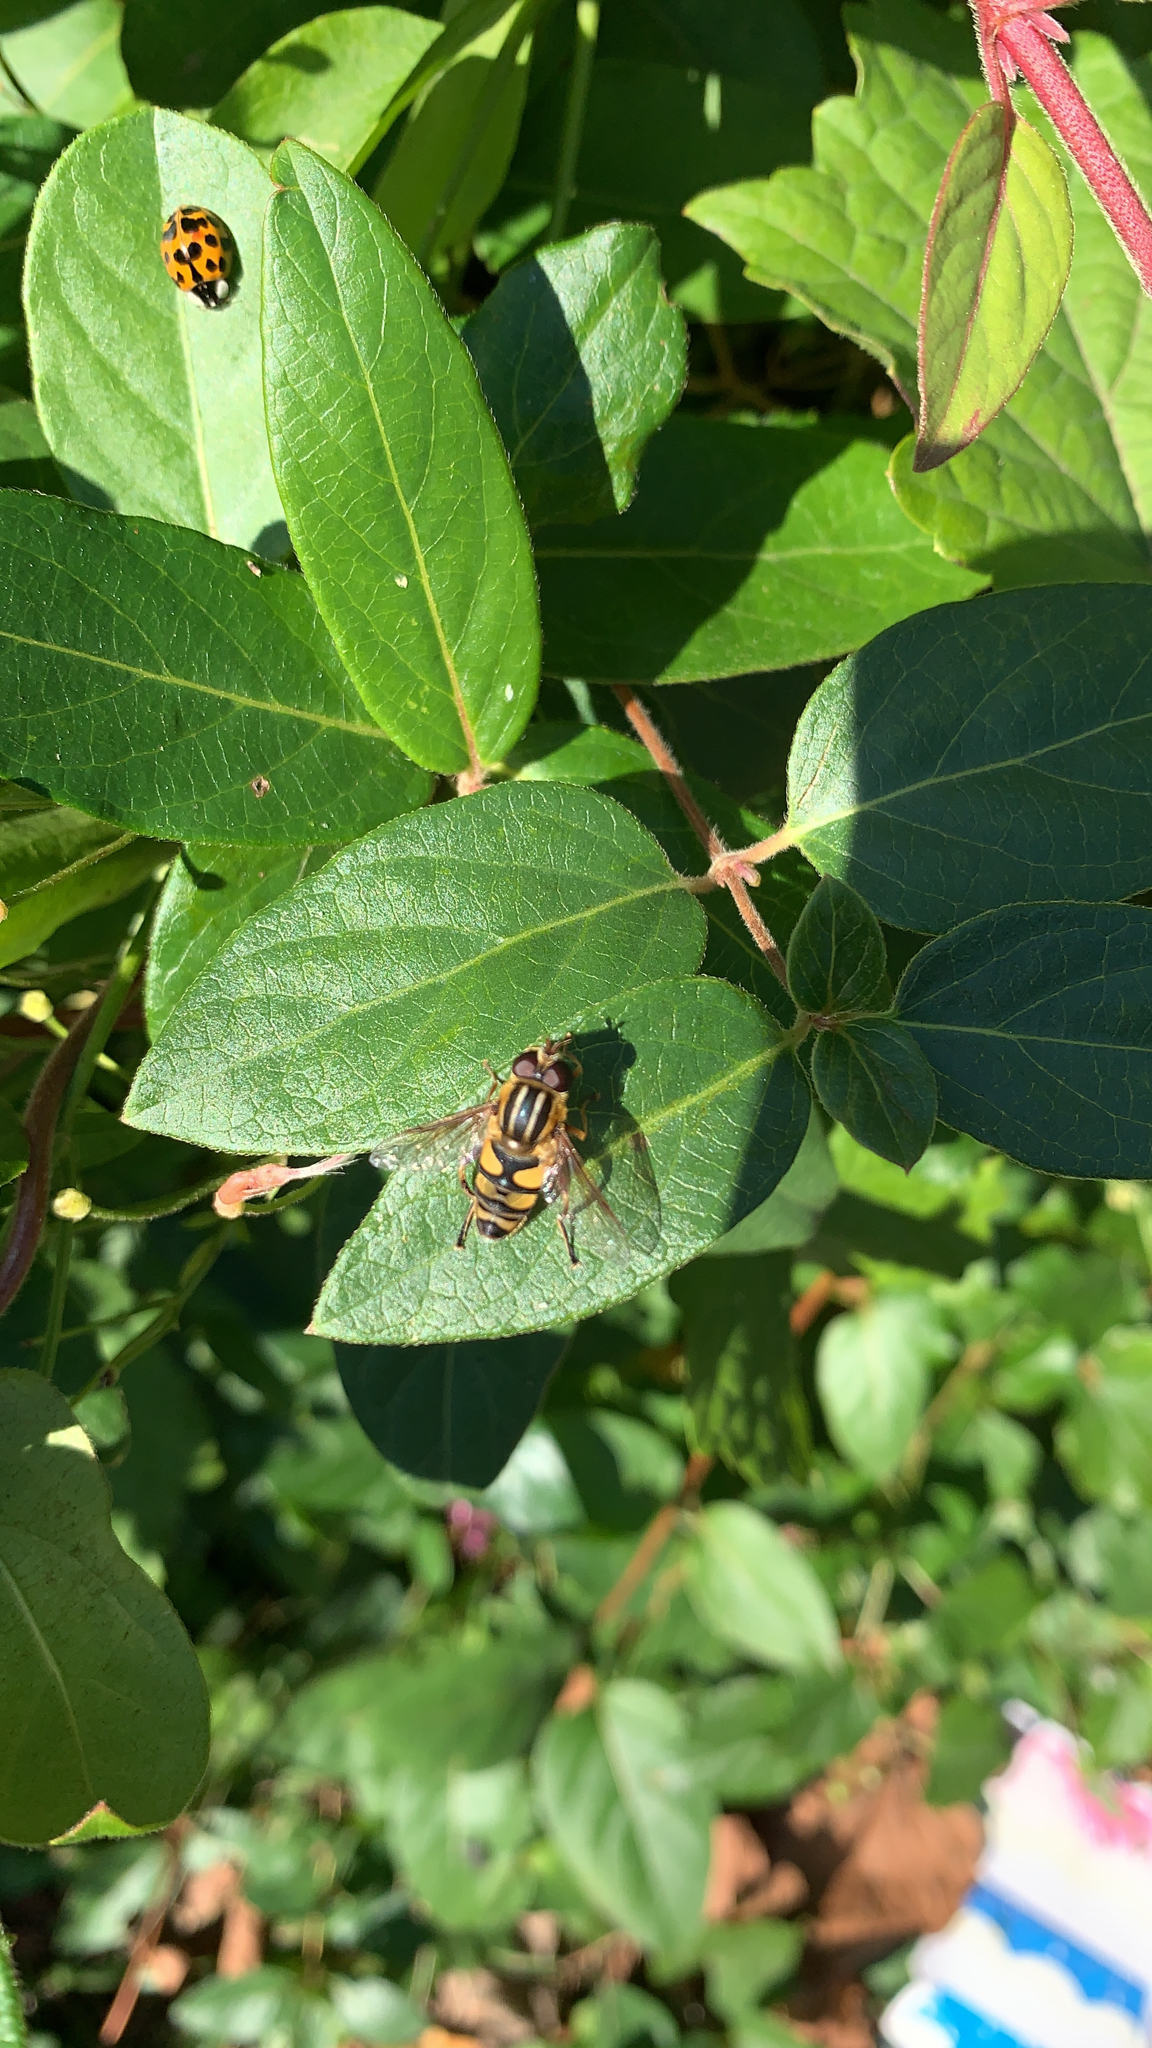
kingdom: Animalia
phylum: Arthropoda
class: Insecta
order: Diptera
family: Syrphidae
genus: Helophilus
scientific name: Helophilus fasciatus
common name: Narrow-headed marsh fly
